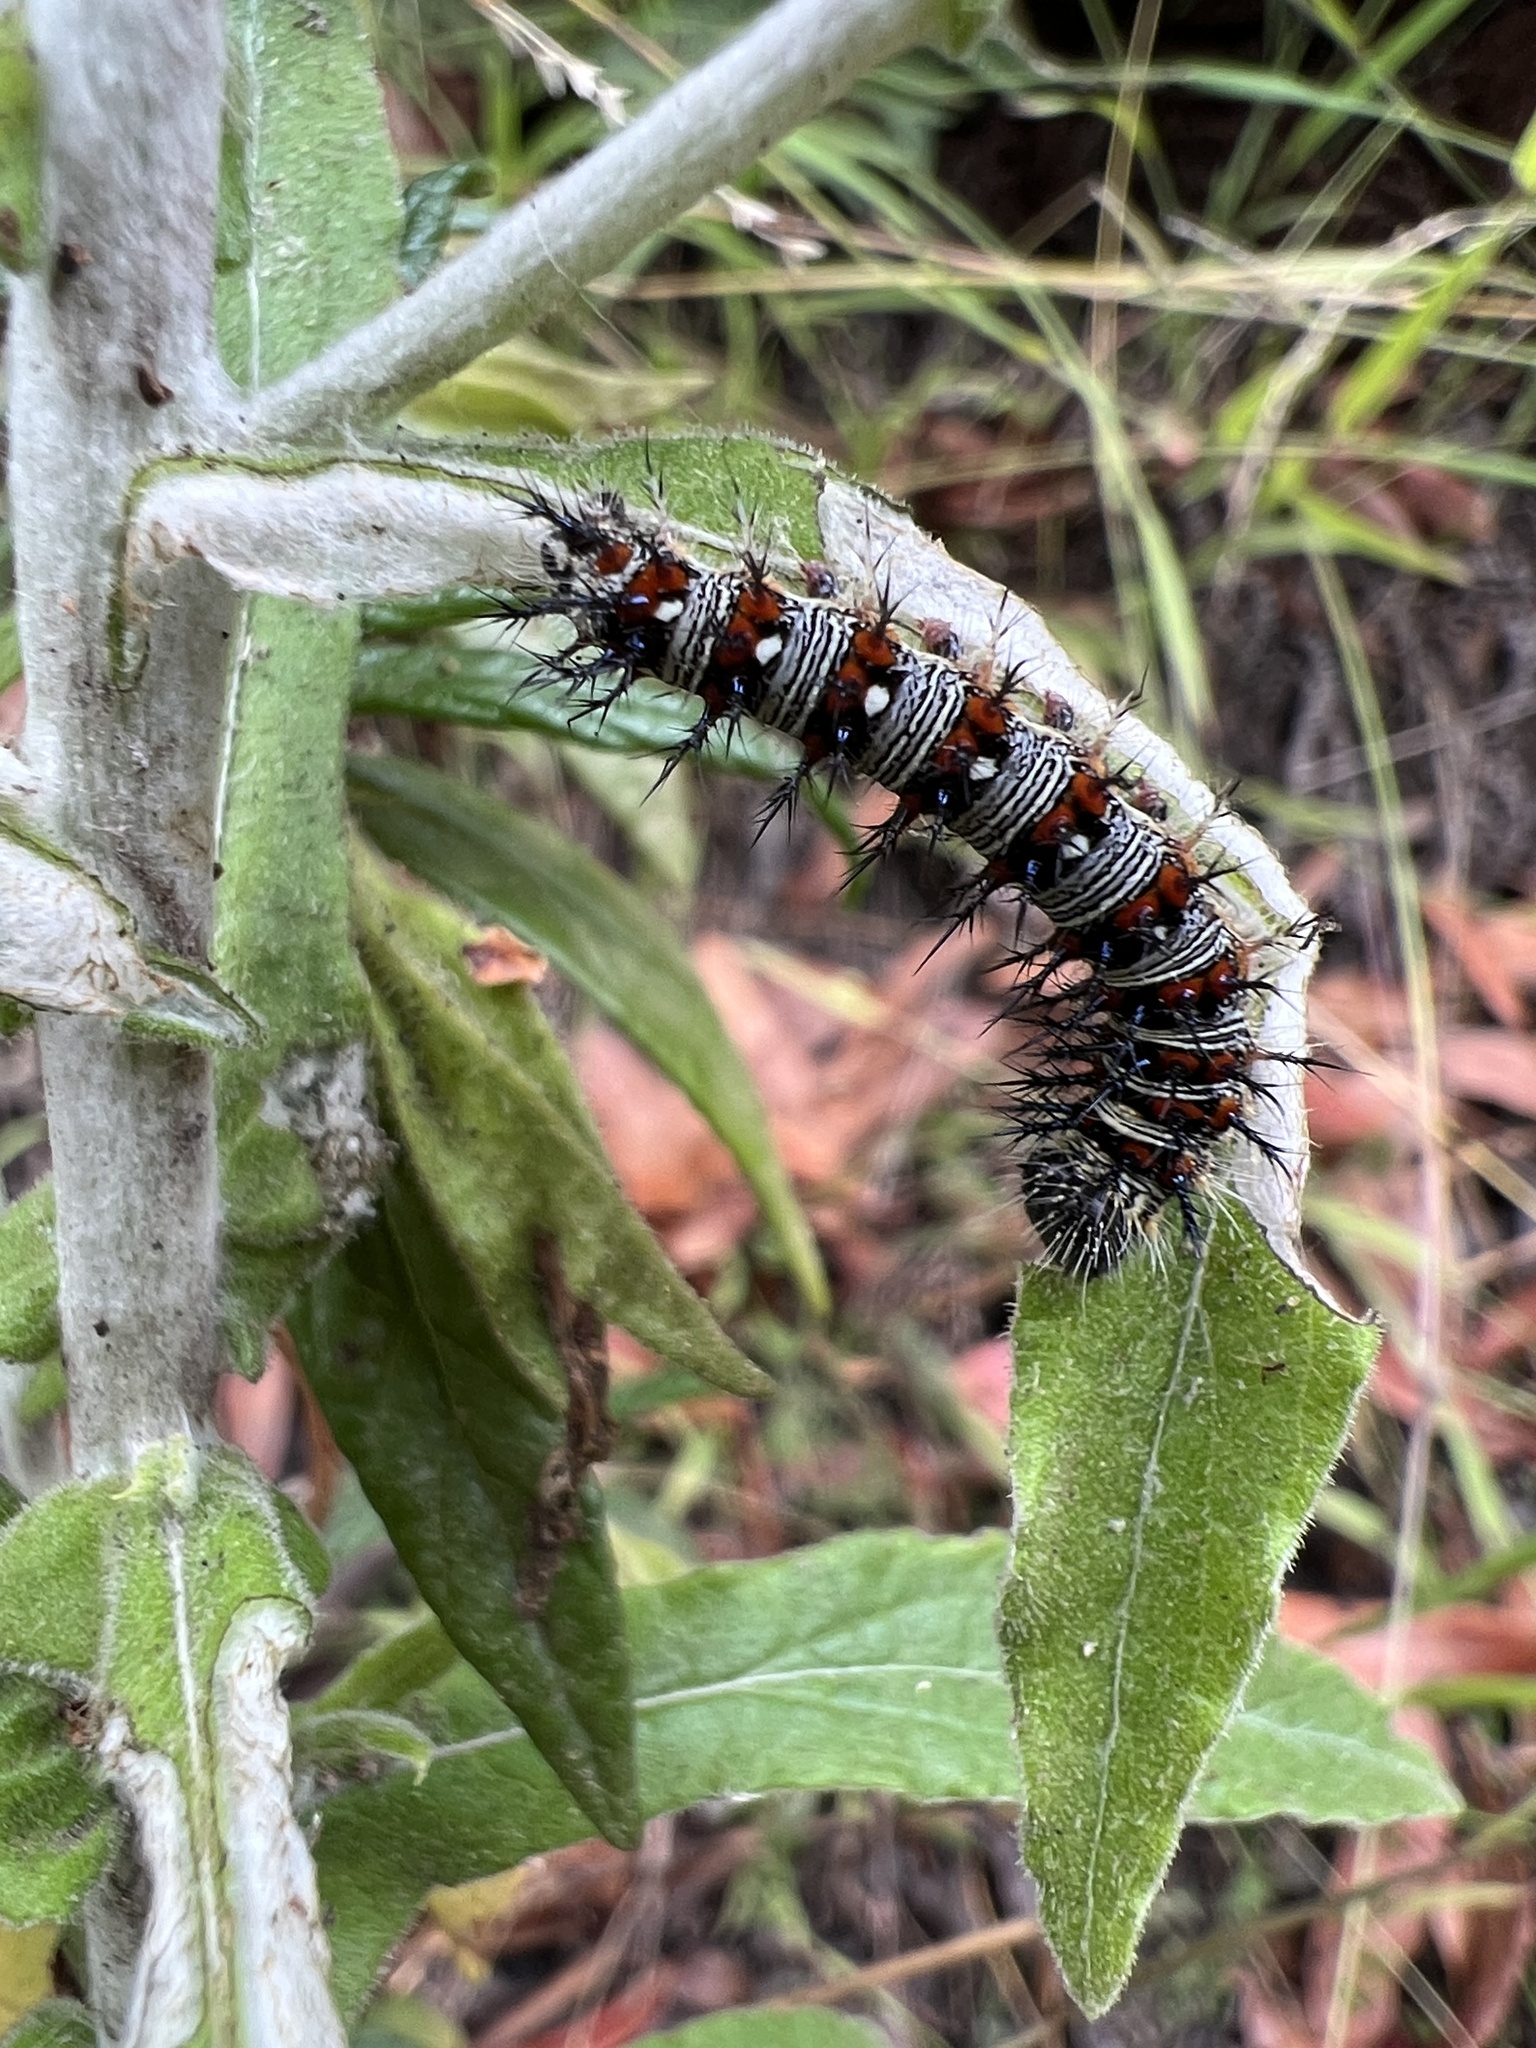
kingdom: Animalia
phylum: Arthropoda
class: Insecta
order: Lepidoptera
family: Nymphalidae
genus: Vanessa
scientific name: Vanessa virginiensis
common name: American lady
